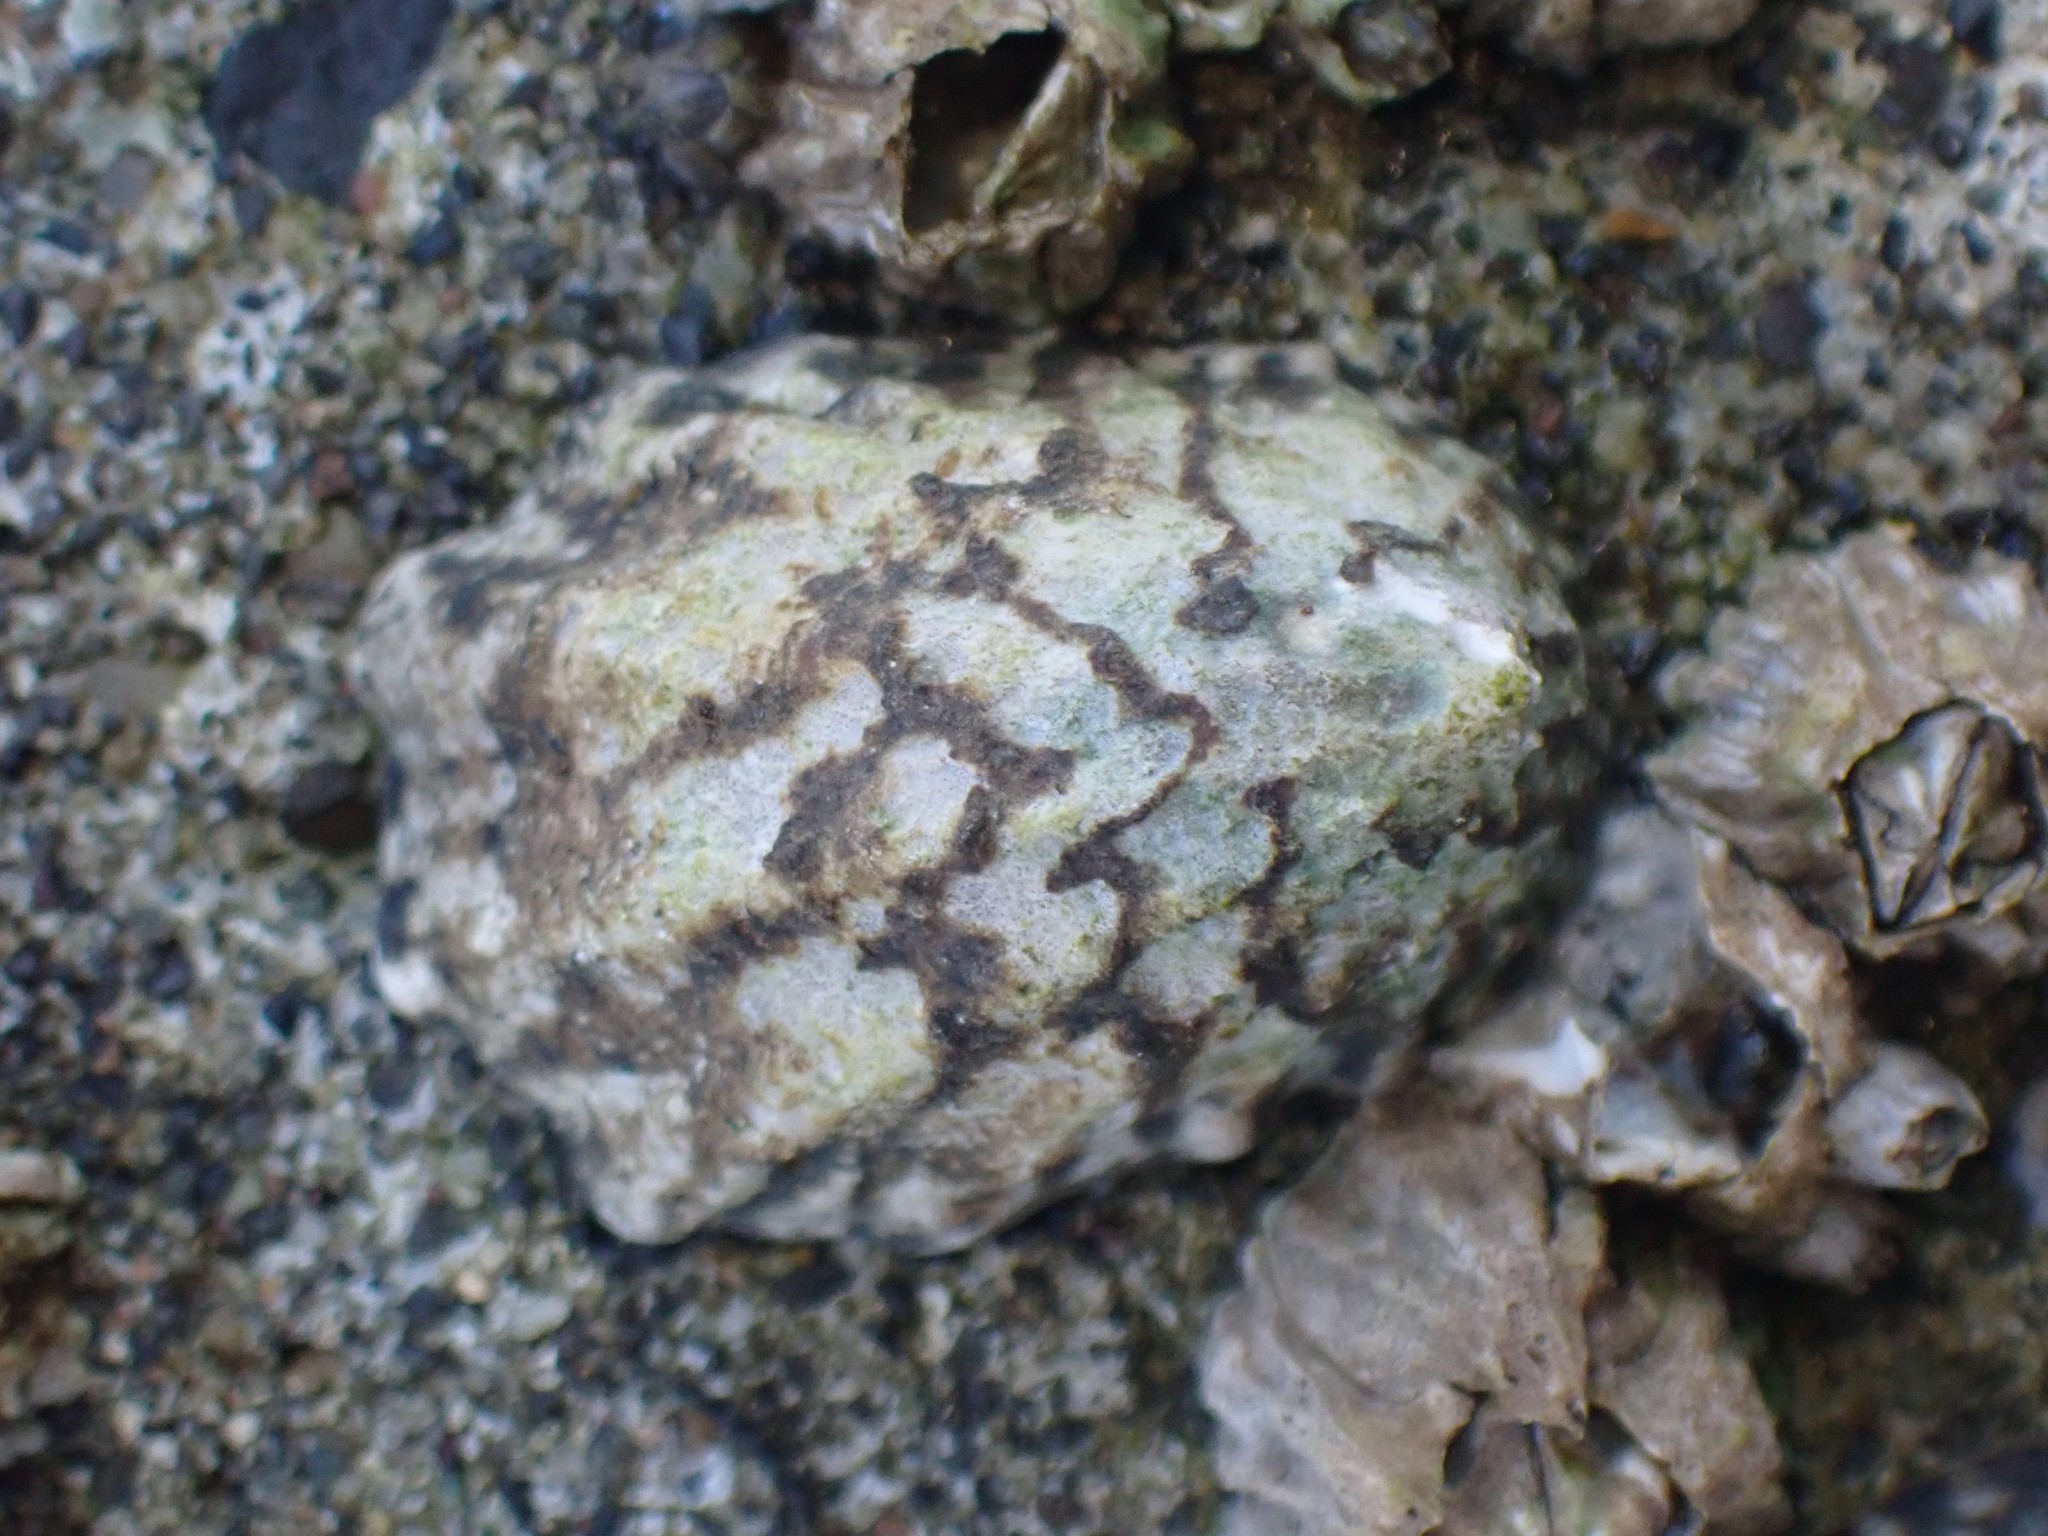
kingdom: Animalia
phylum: Mollusca
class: Gastropoda
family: Lottiidae
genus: Lottia
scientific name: Lottia digitalis
